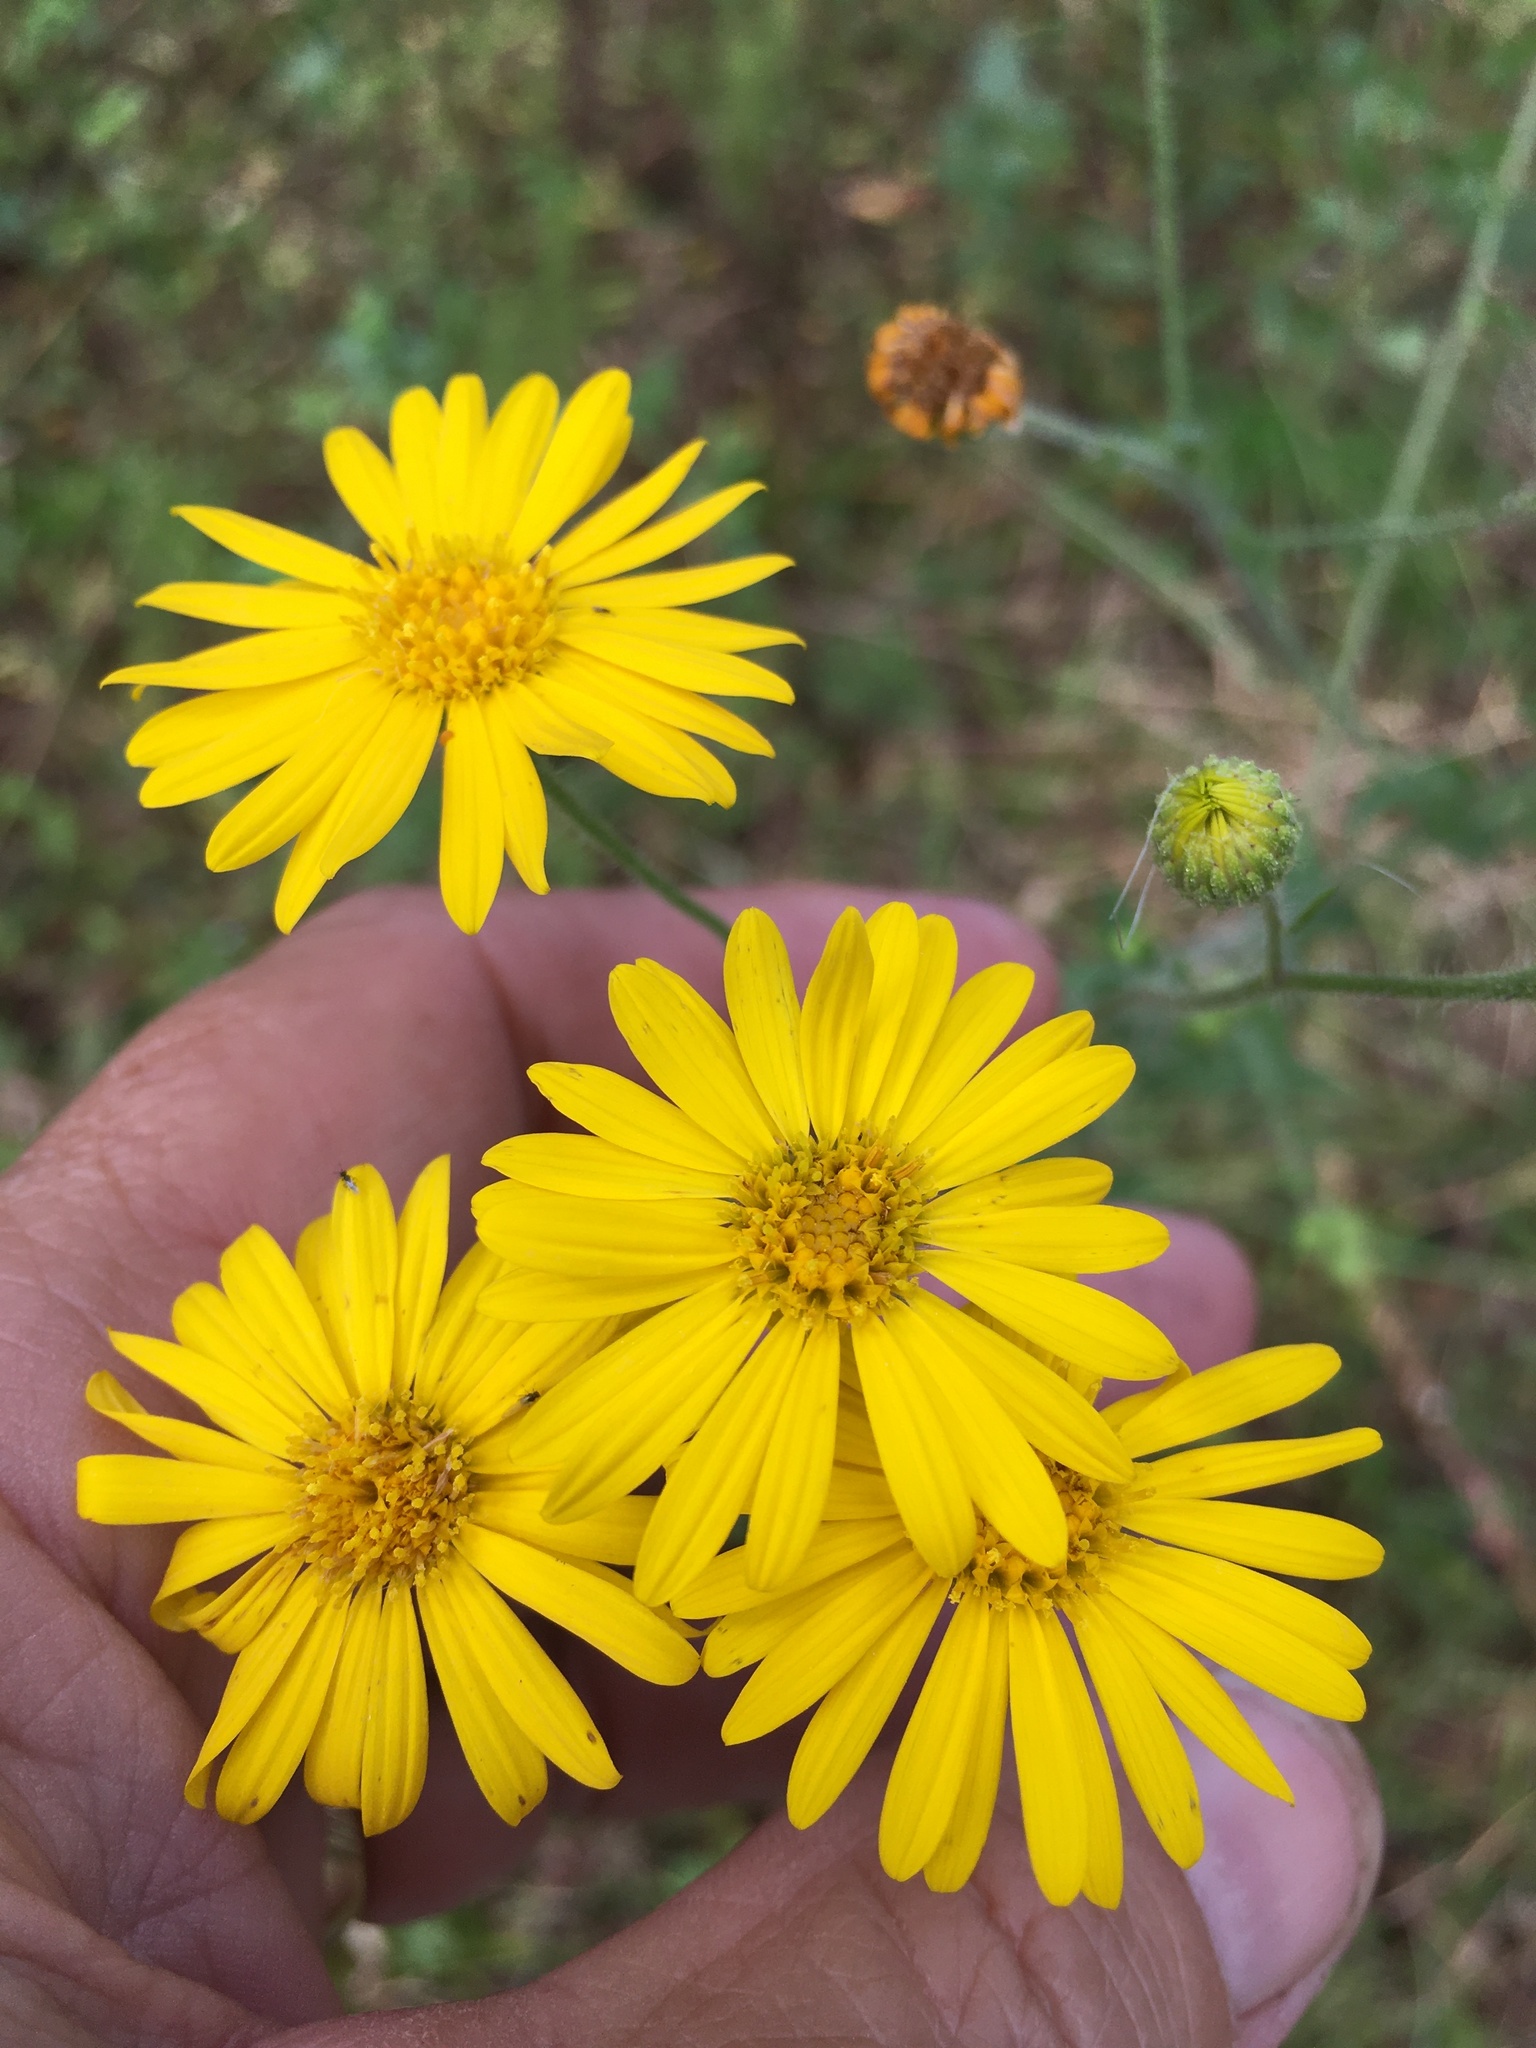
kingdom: Plantae
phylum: Tracheophyta
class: Magnoliopsida
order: Asterales
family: Asteraceae
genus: Heterotheca
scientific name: Heterotheca subaxillaris
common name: Camphorweed
